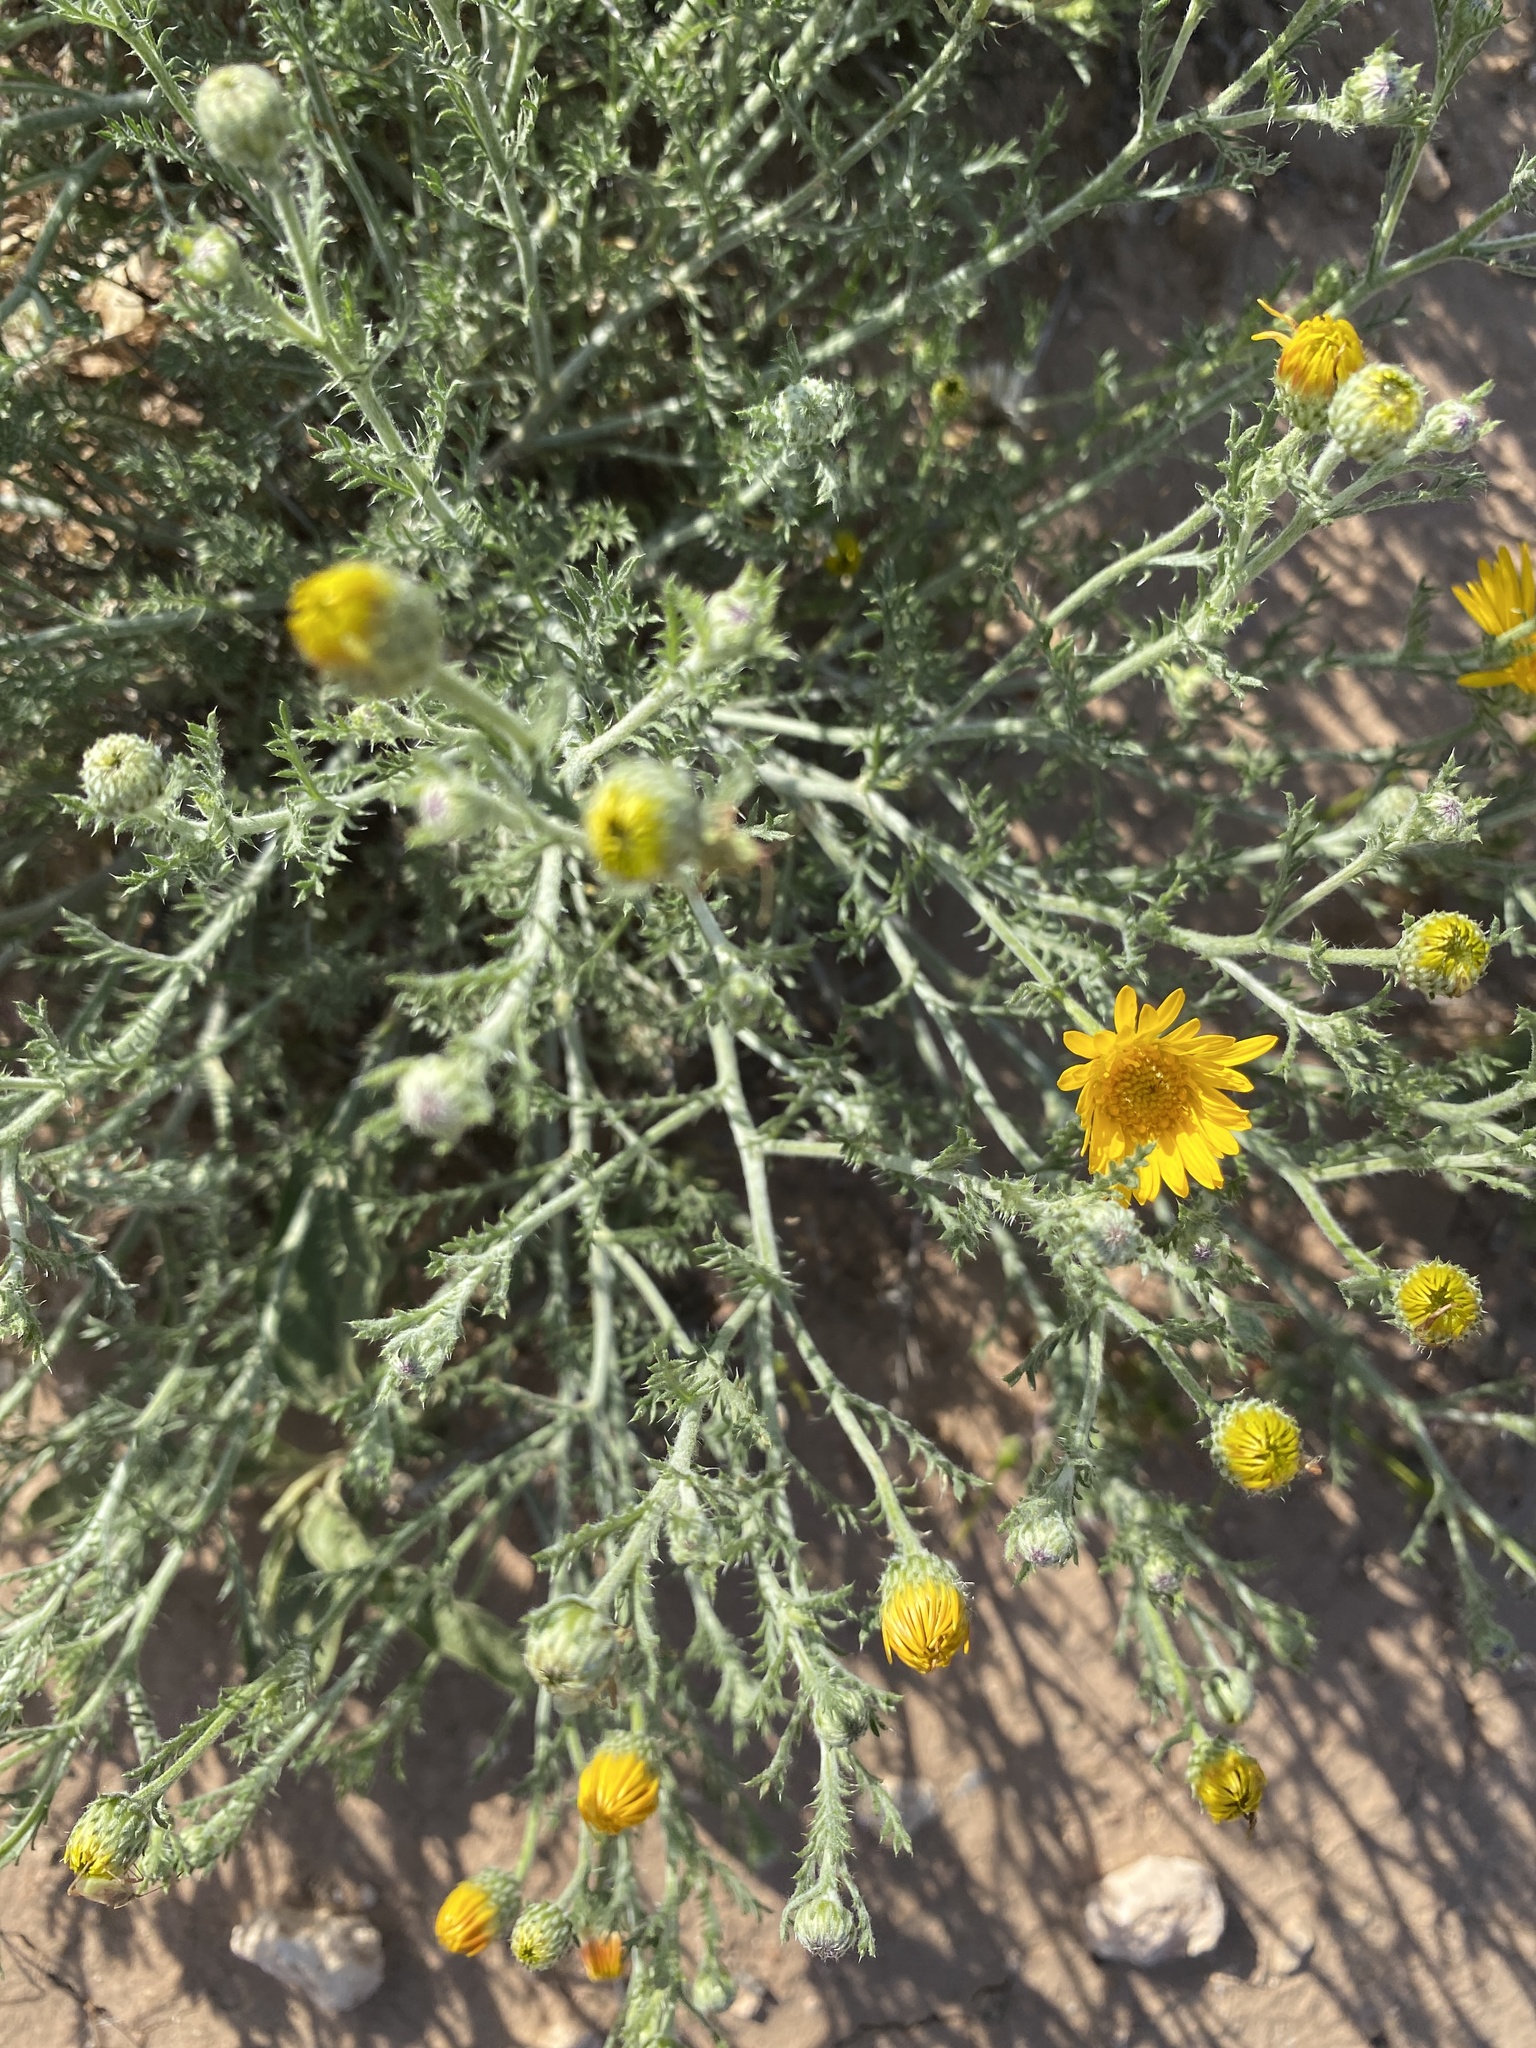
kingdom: Plantae
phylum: Tracheophyta
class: Magnoliopsida
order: Asterales
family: Asteraceae
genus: Xanthisma
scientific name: Xanthisma spinulosum
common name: Spiny goldenweed
